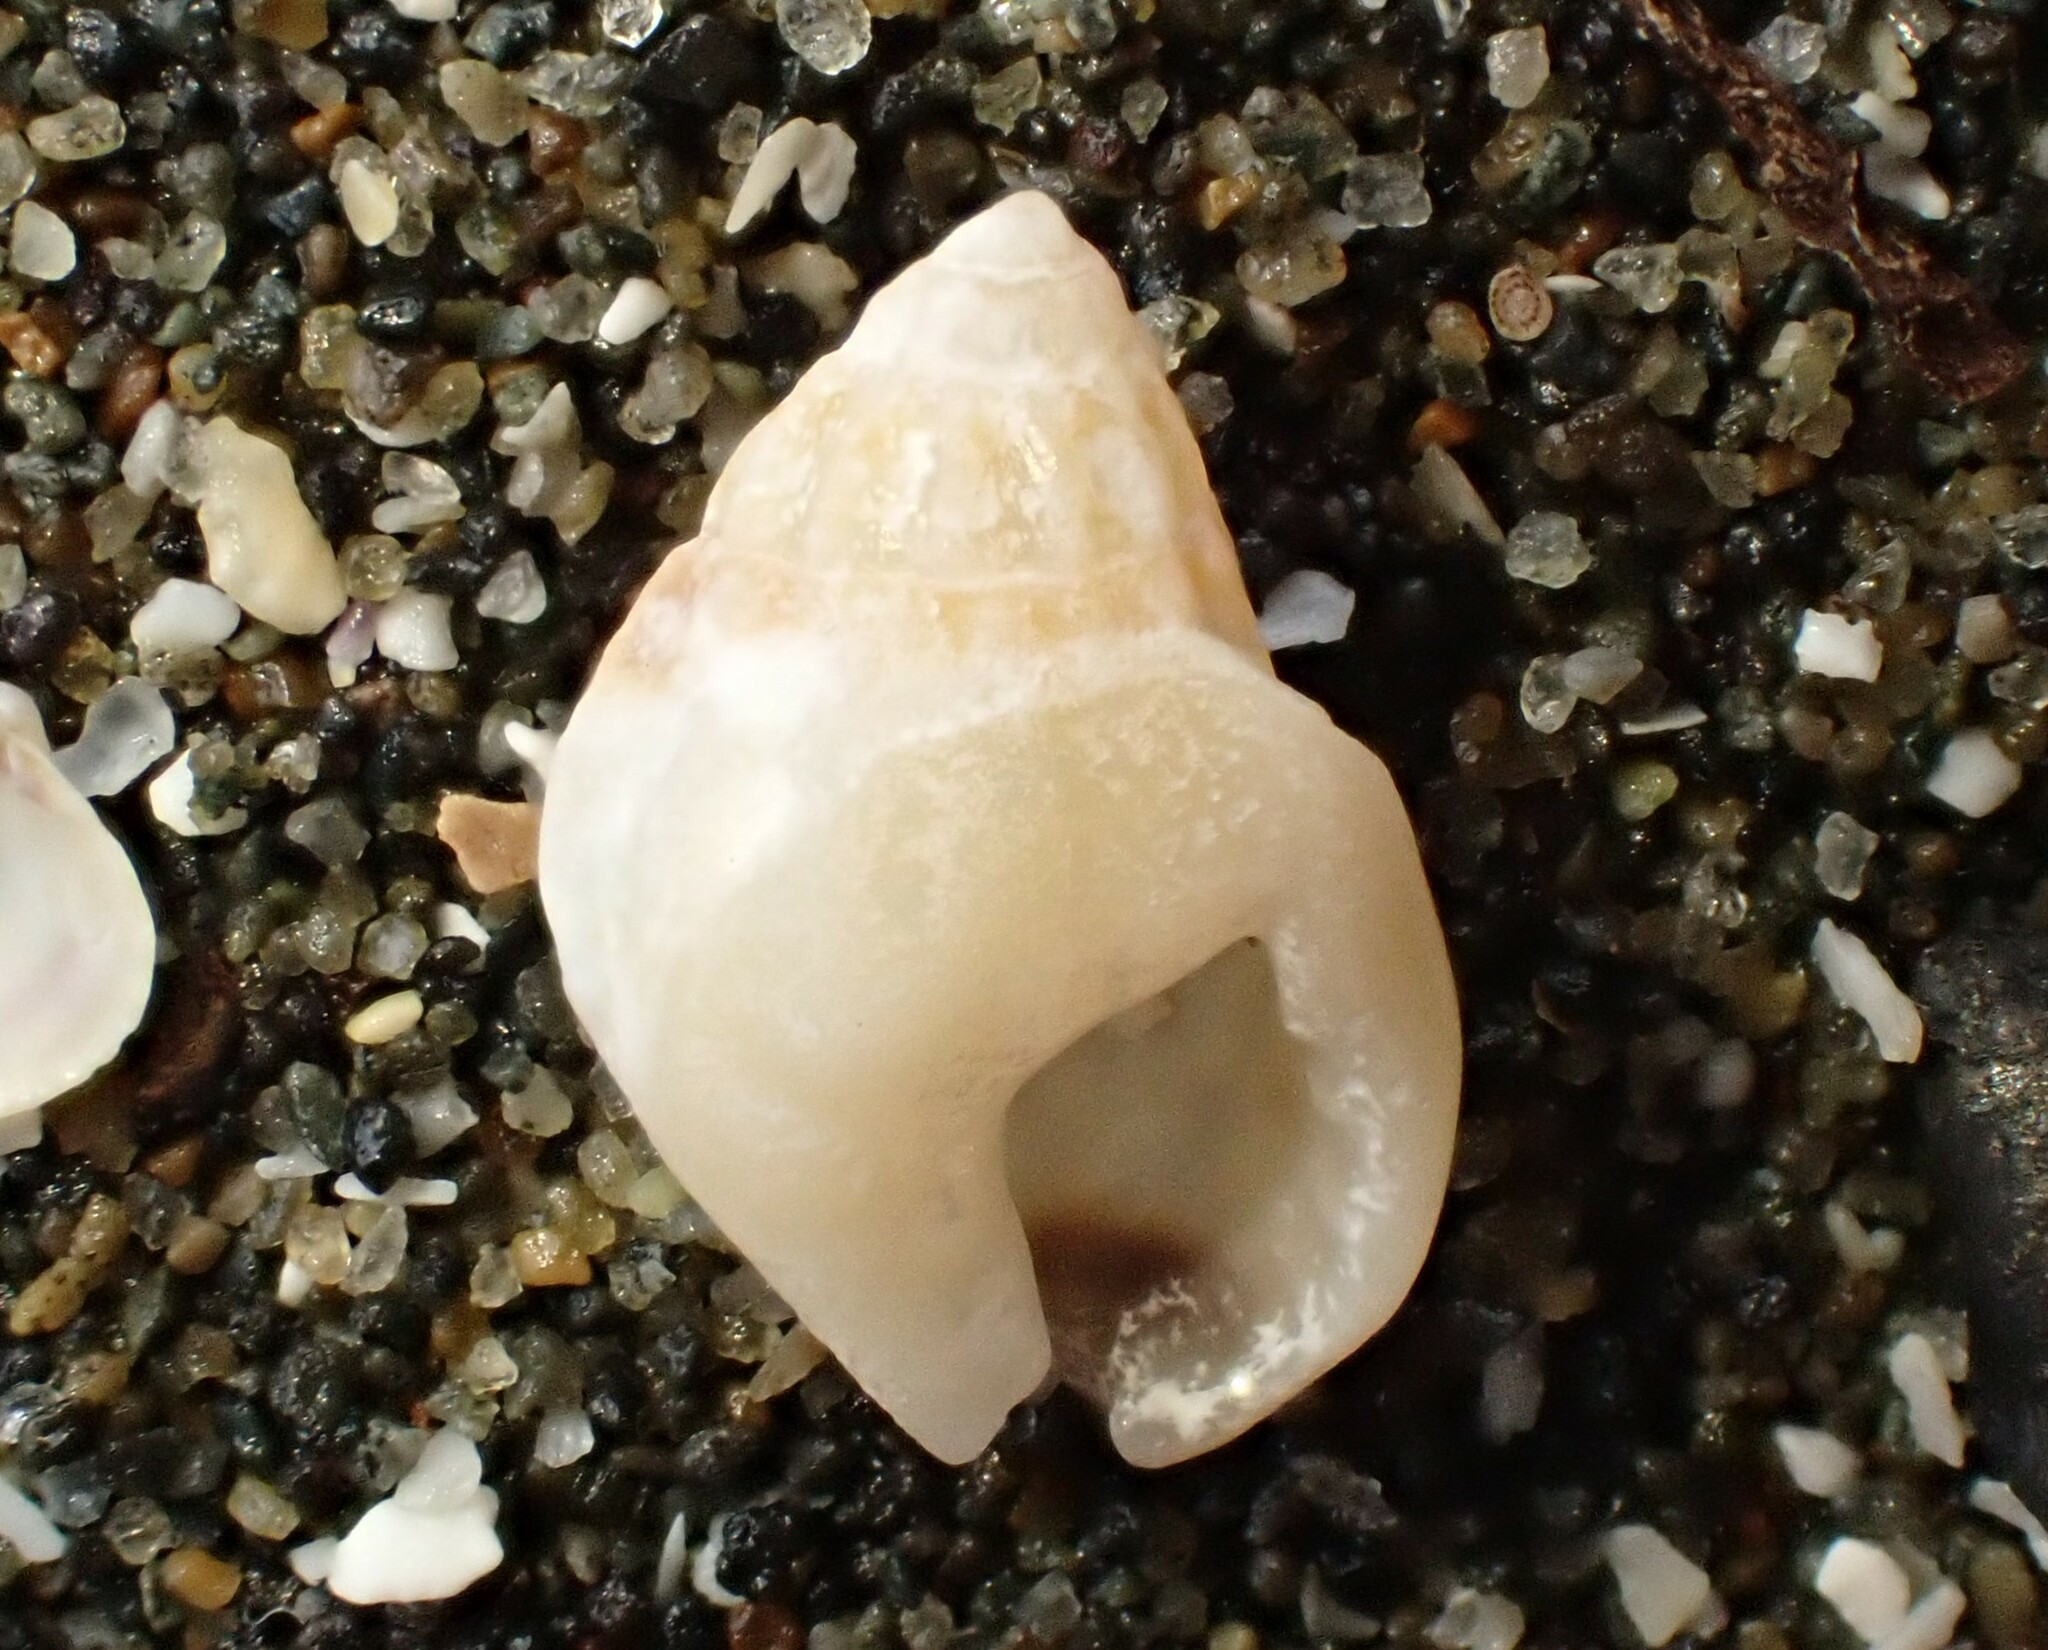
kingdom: Animalia
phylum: Mollusca
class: Gastropoda
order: Neogastropoda
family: Nassariidae
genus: Tritia
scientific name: Tritia burchardi
